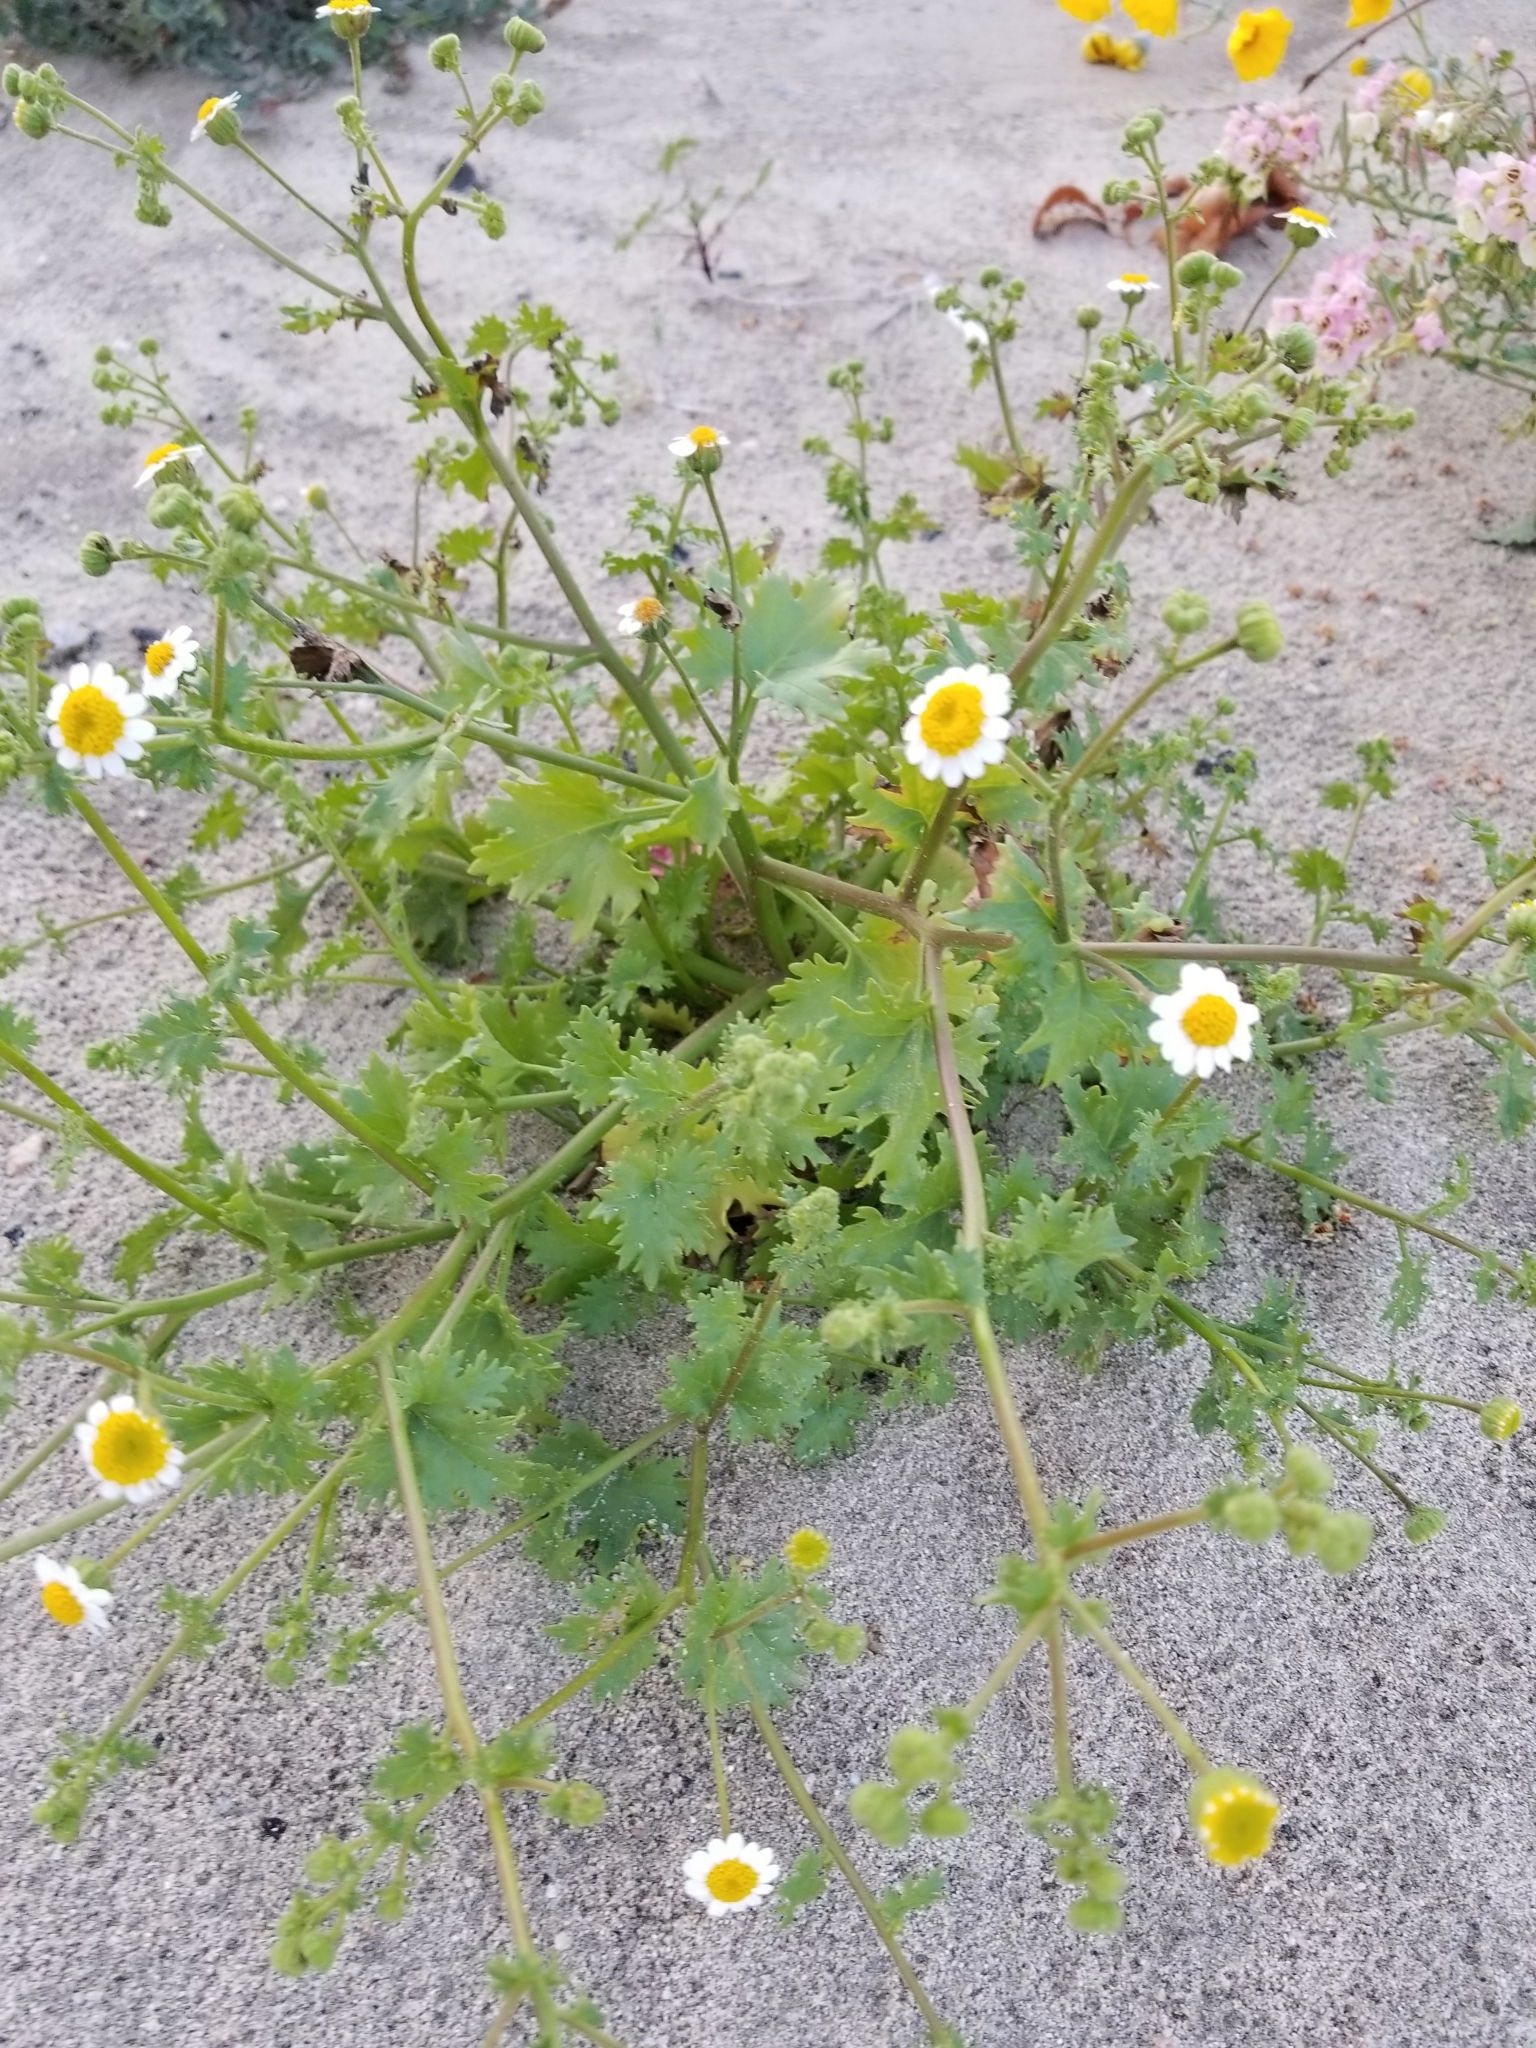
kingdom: Plantae
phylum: Tracheophyta
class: Magnoliopsida
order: Asterales
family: Asteraceae
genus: Laphamia
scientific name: Laphamia emoryi
